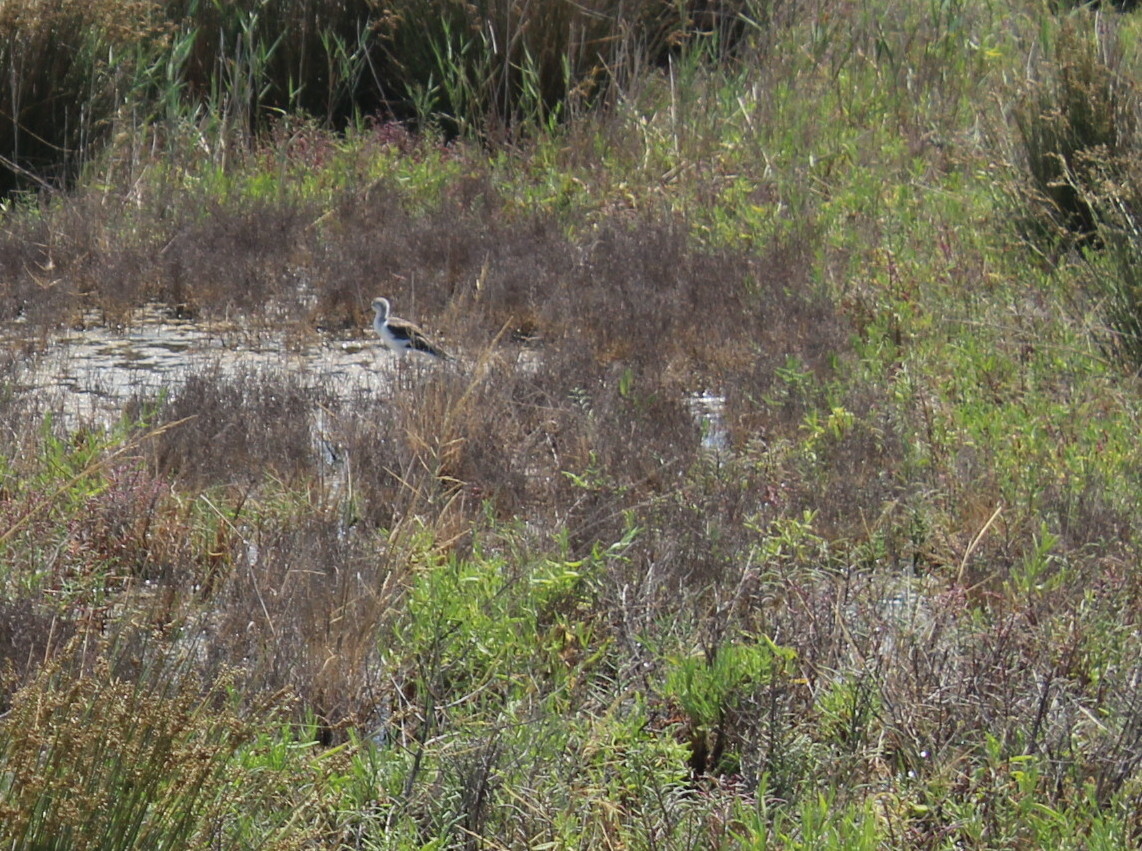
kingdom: Animalia
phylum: Chordata
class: Aves
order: Charadriiformes
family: Recurvirostridae
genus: Himantopus
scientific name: Himantopus himantopus
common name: Black-winged stilt
